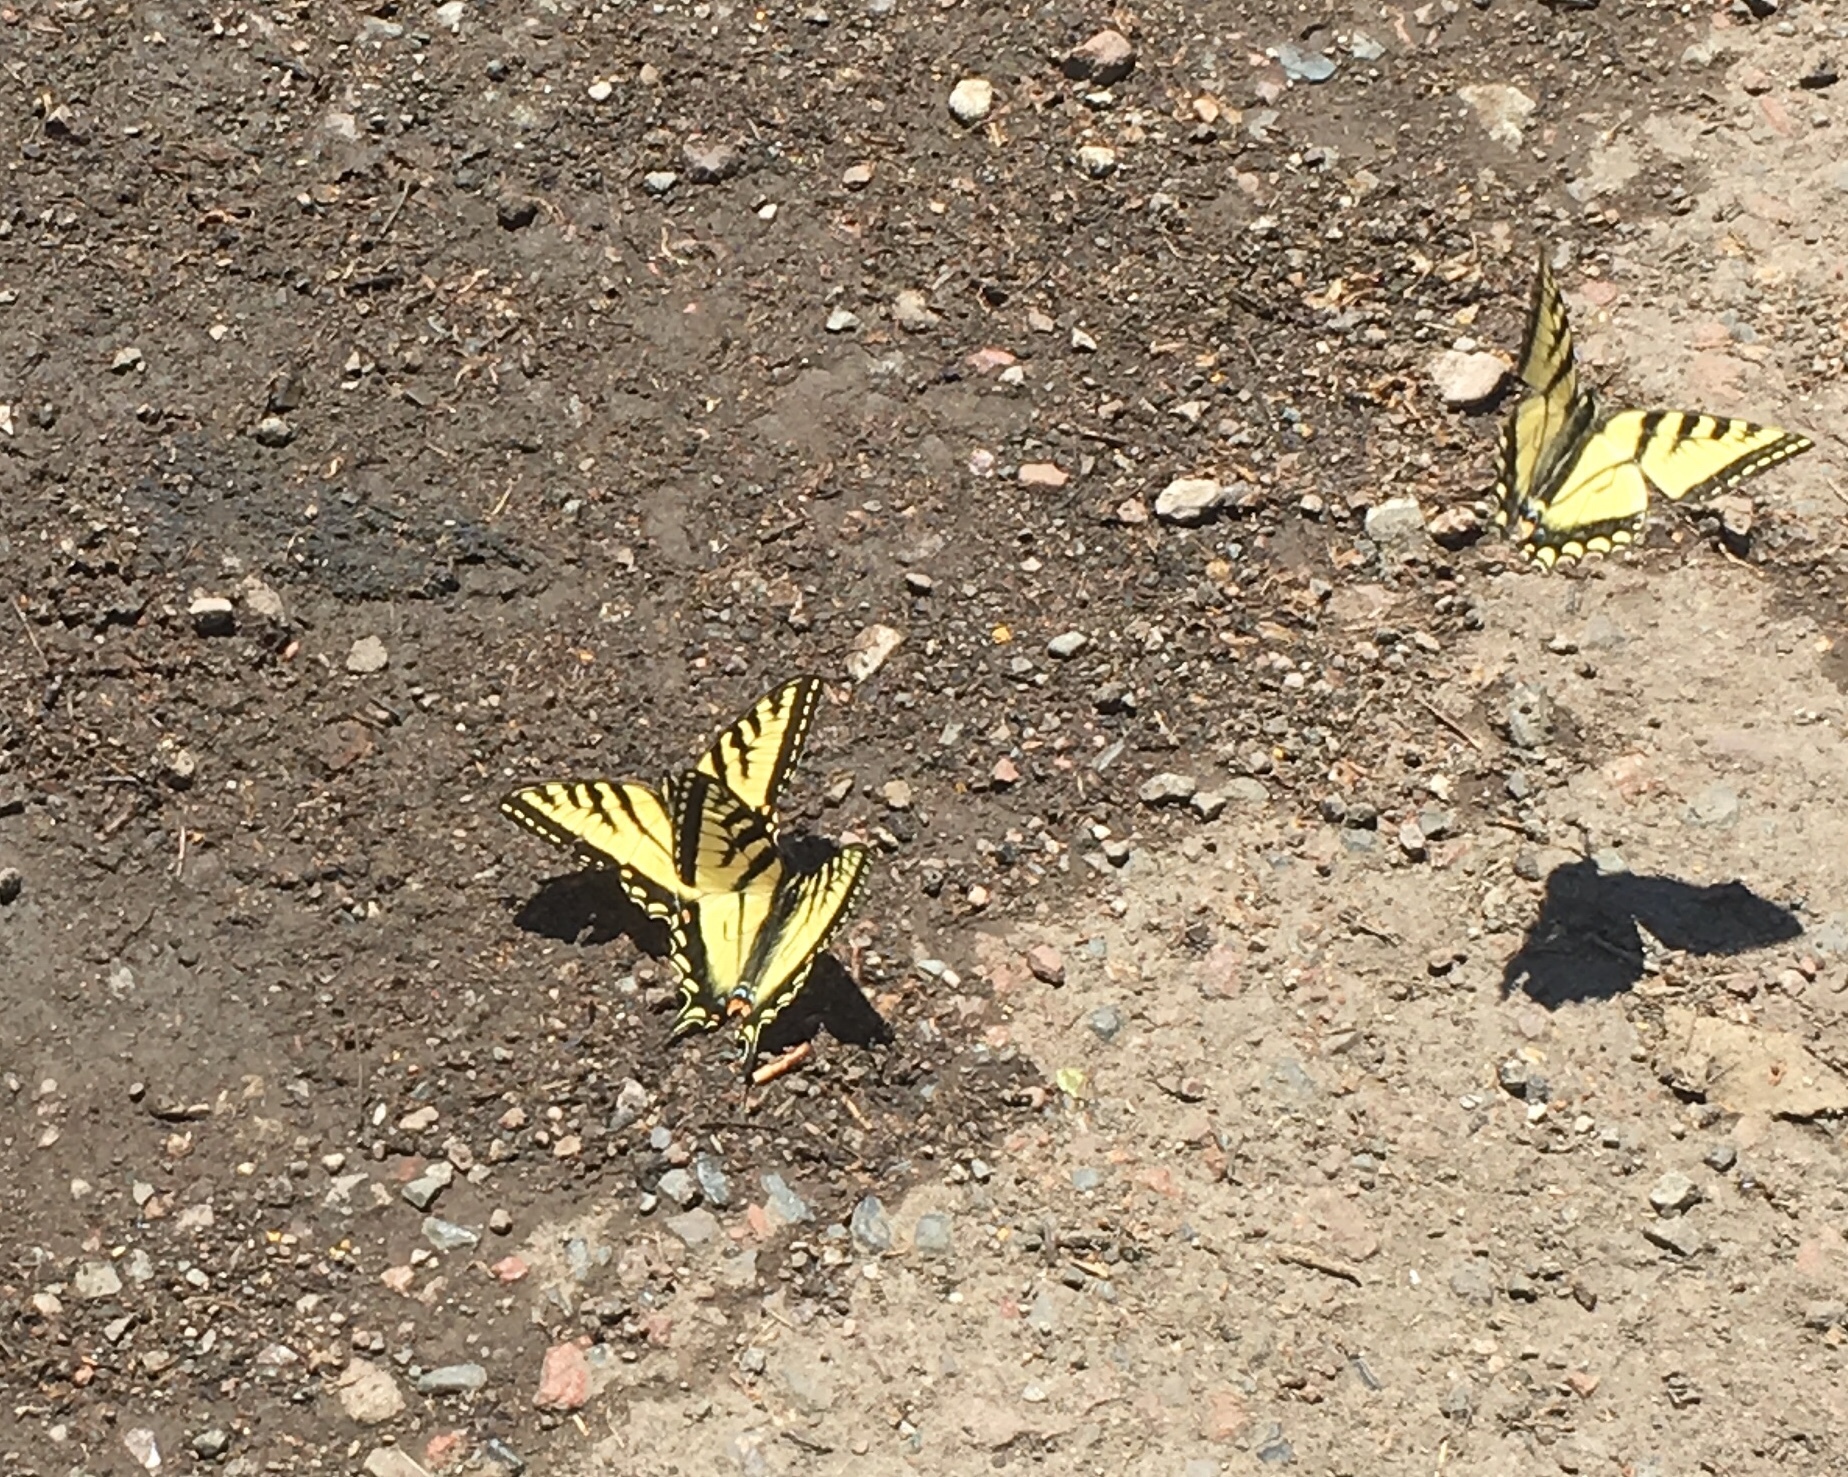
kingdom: Animalia
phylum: Arthropoda
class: Insecta
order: Lepidoptera
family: Papilionidae
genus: Papilio
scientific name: Papilio canadensis
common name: Canadian tiger swallowtail
